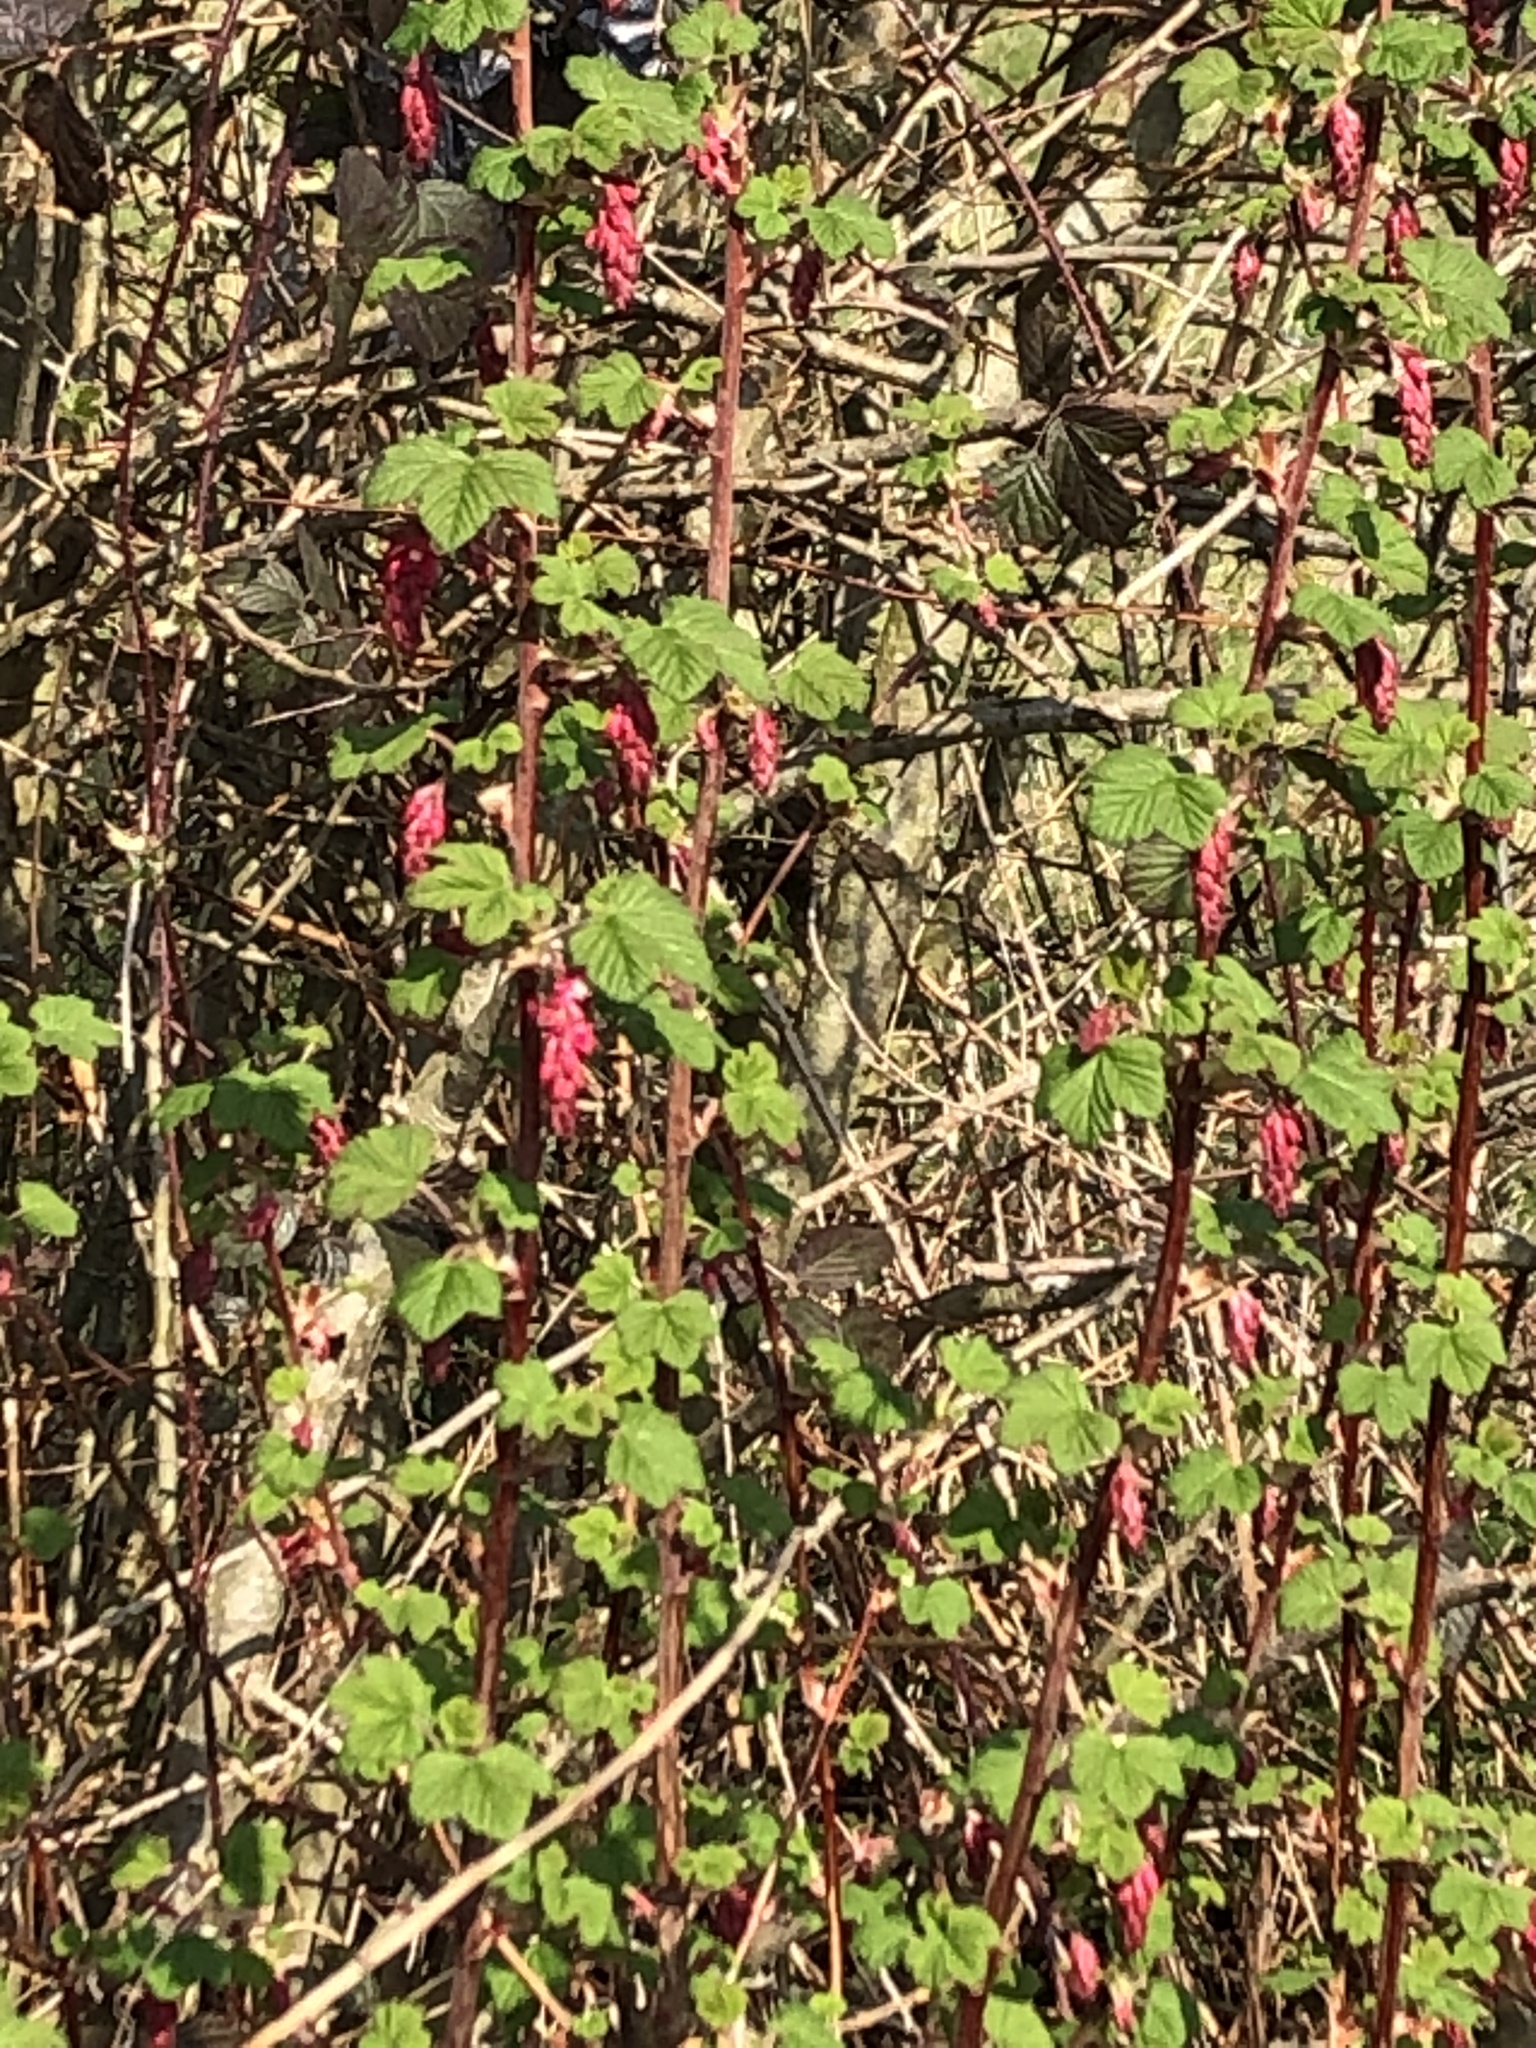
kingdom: Plantae
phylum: Tracheophyta
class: Magnoliopsida
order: Saxifragales
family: Grossulariaceae
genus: Ribes
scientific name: Ribes sanguineum
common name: Flowering currant
